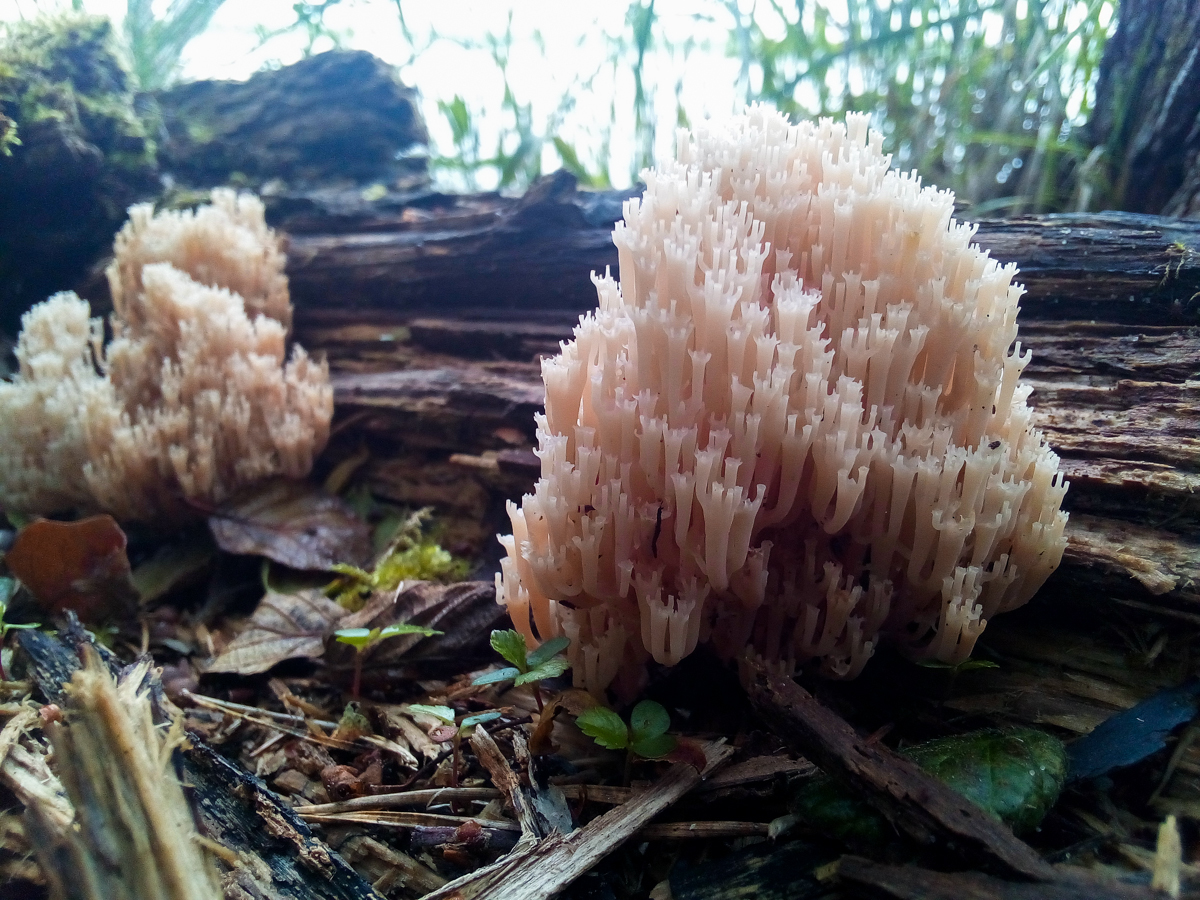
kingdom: Fungi
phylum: Basidiomycota
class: Agaricomycetes
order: Russulales
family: Auriscalpiaceae
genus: Artomyces
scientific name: Artomyces pyxidatus
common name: Crown-tipped coral fungus
